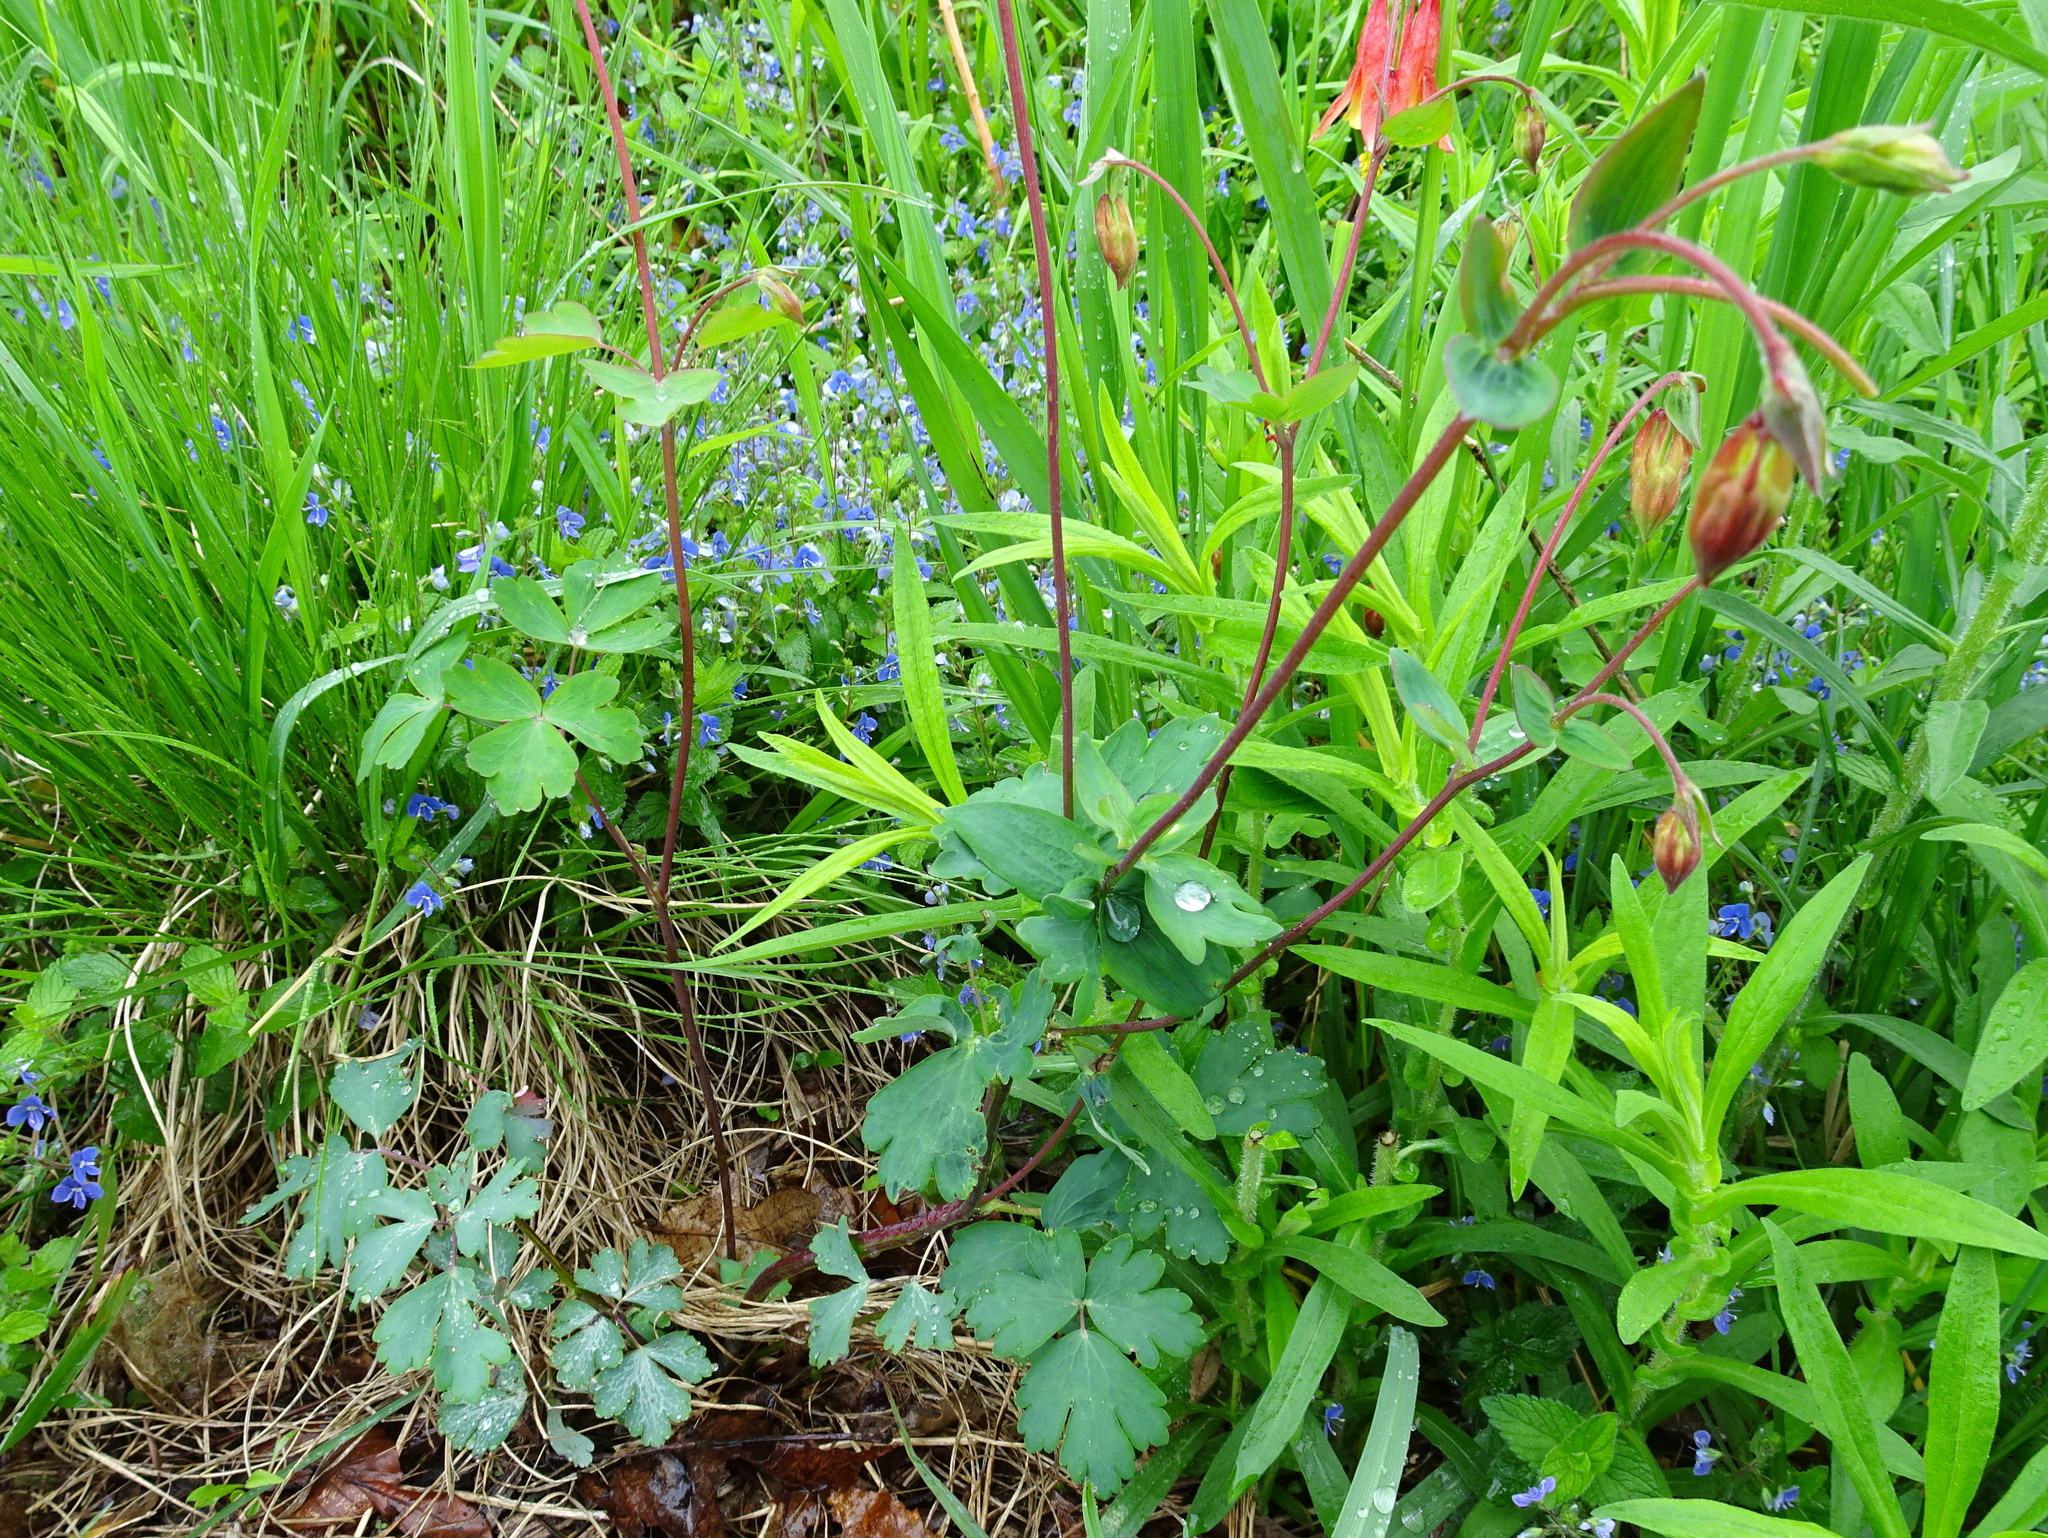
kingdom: Plantae
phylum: Tracheophyta
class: Magnoliopsida
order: Ranunculales
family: Ranunculaceae
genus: Aquilegia
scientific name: Aquilegia canadensis
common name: American columbine
